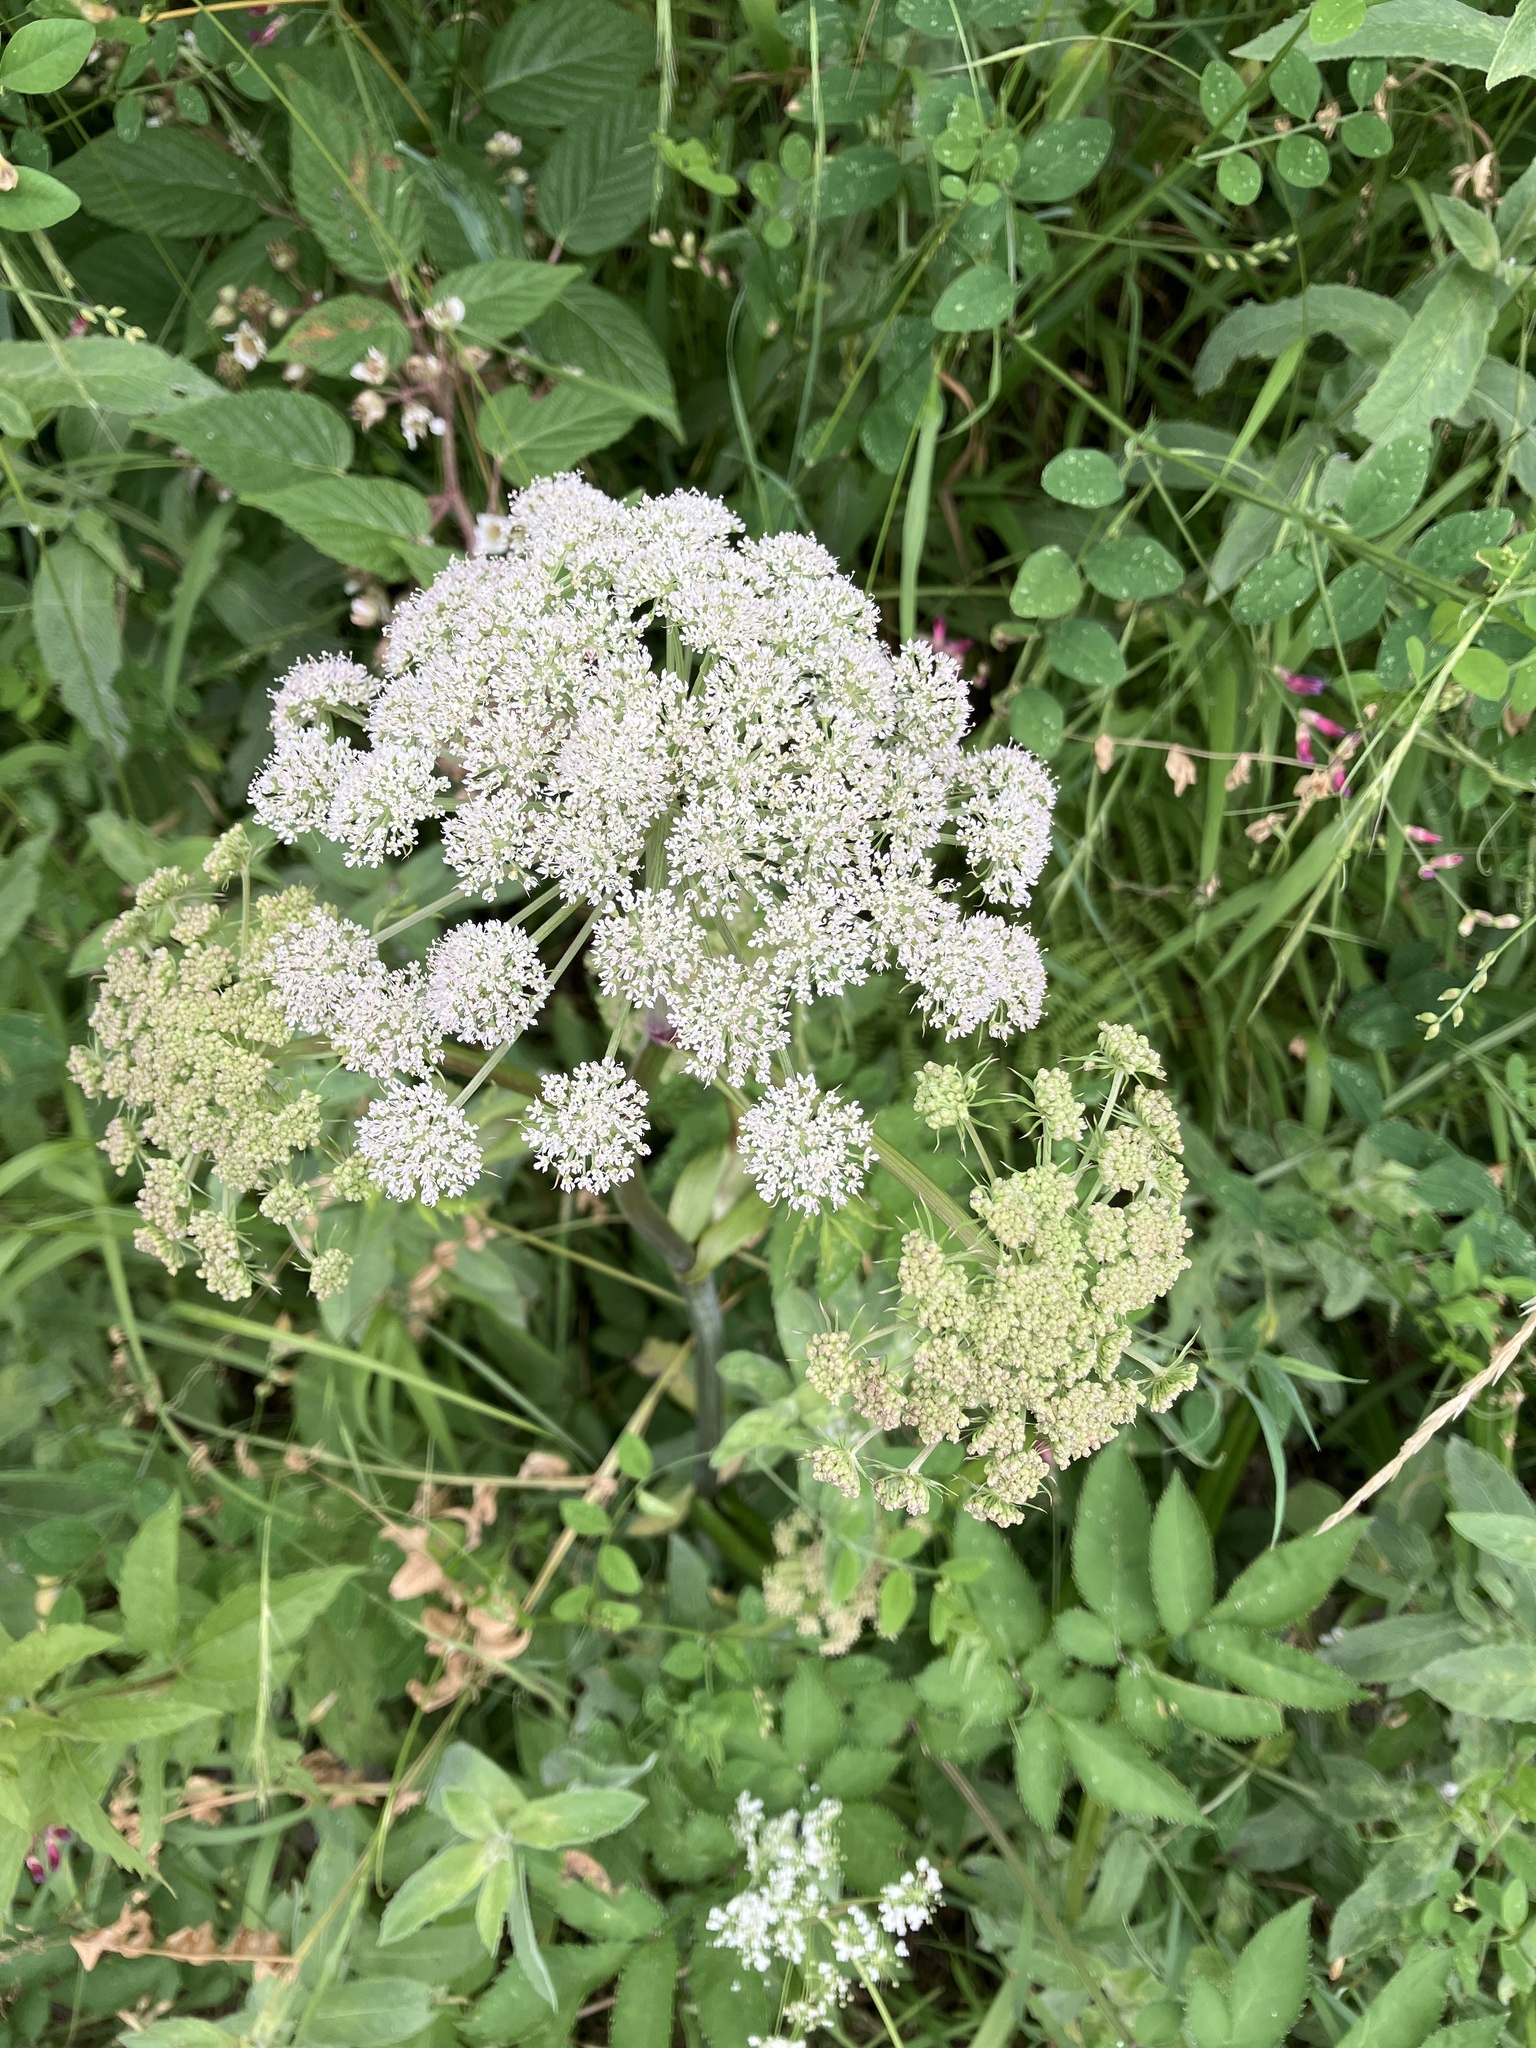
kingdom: Plantae
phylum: Tracheophyta
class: Magnoliopsida
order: Apiales
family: Apiaceae
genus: Angelica
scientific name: Angelica sylvestris
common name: Wild angelica
